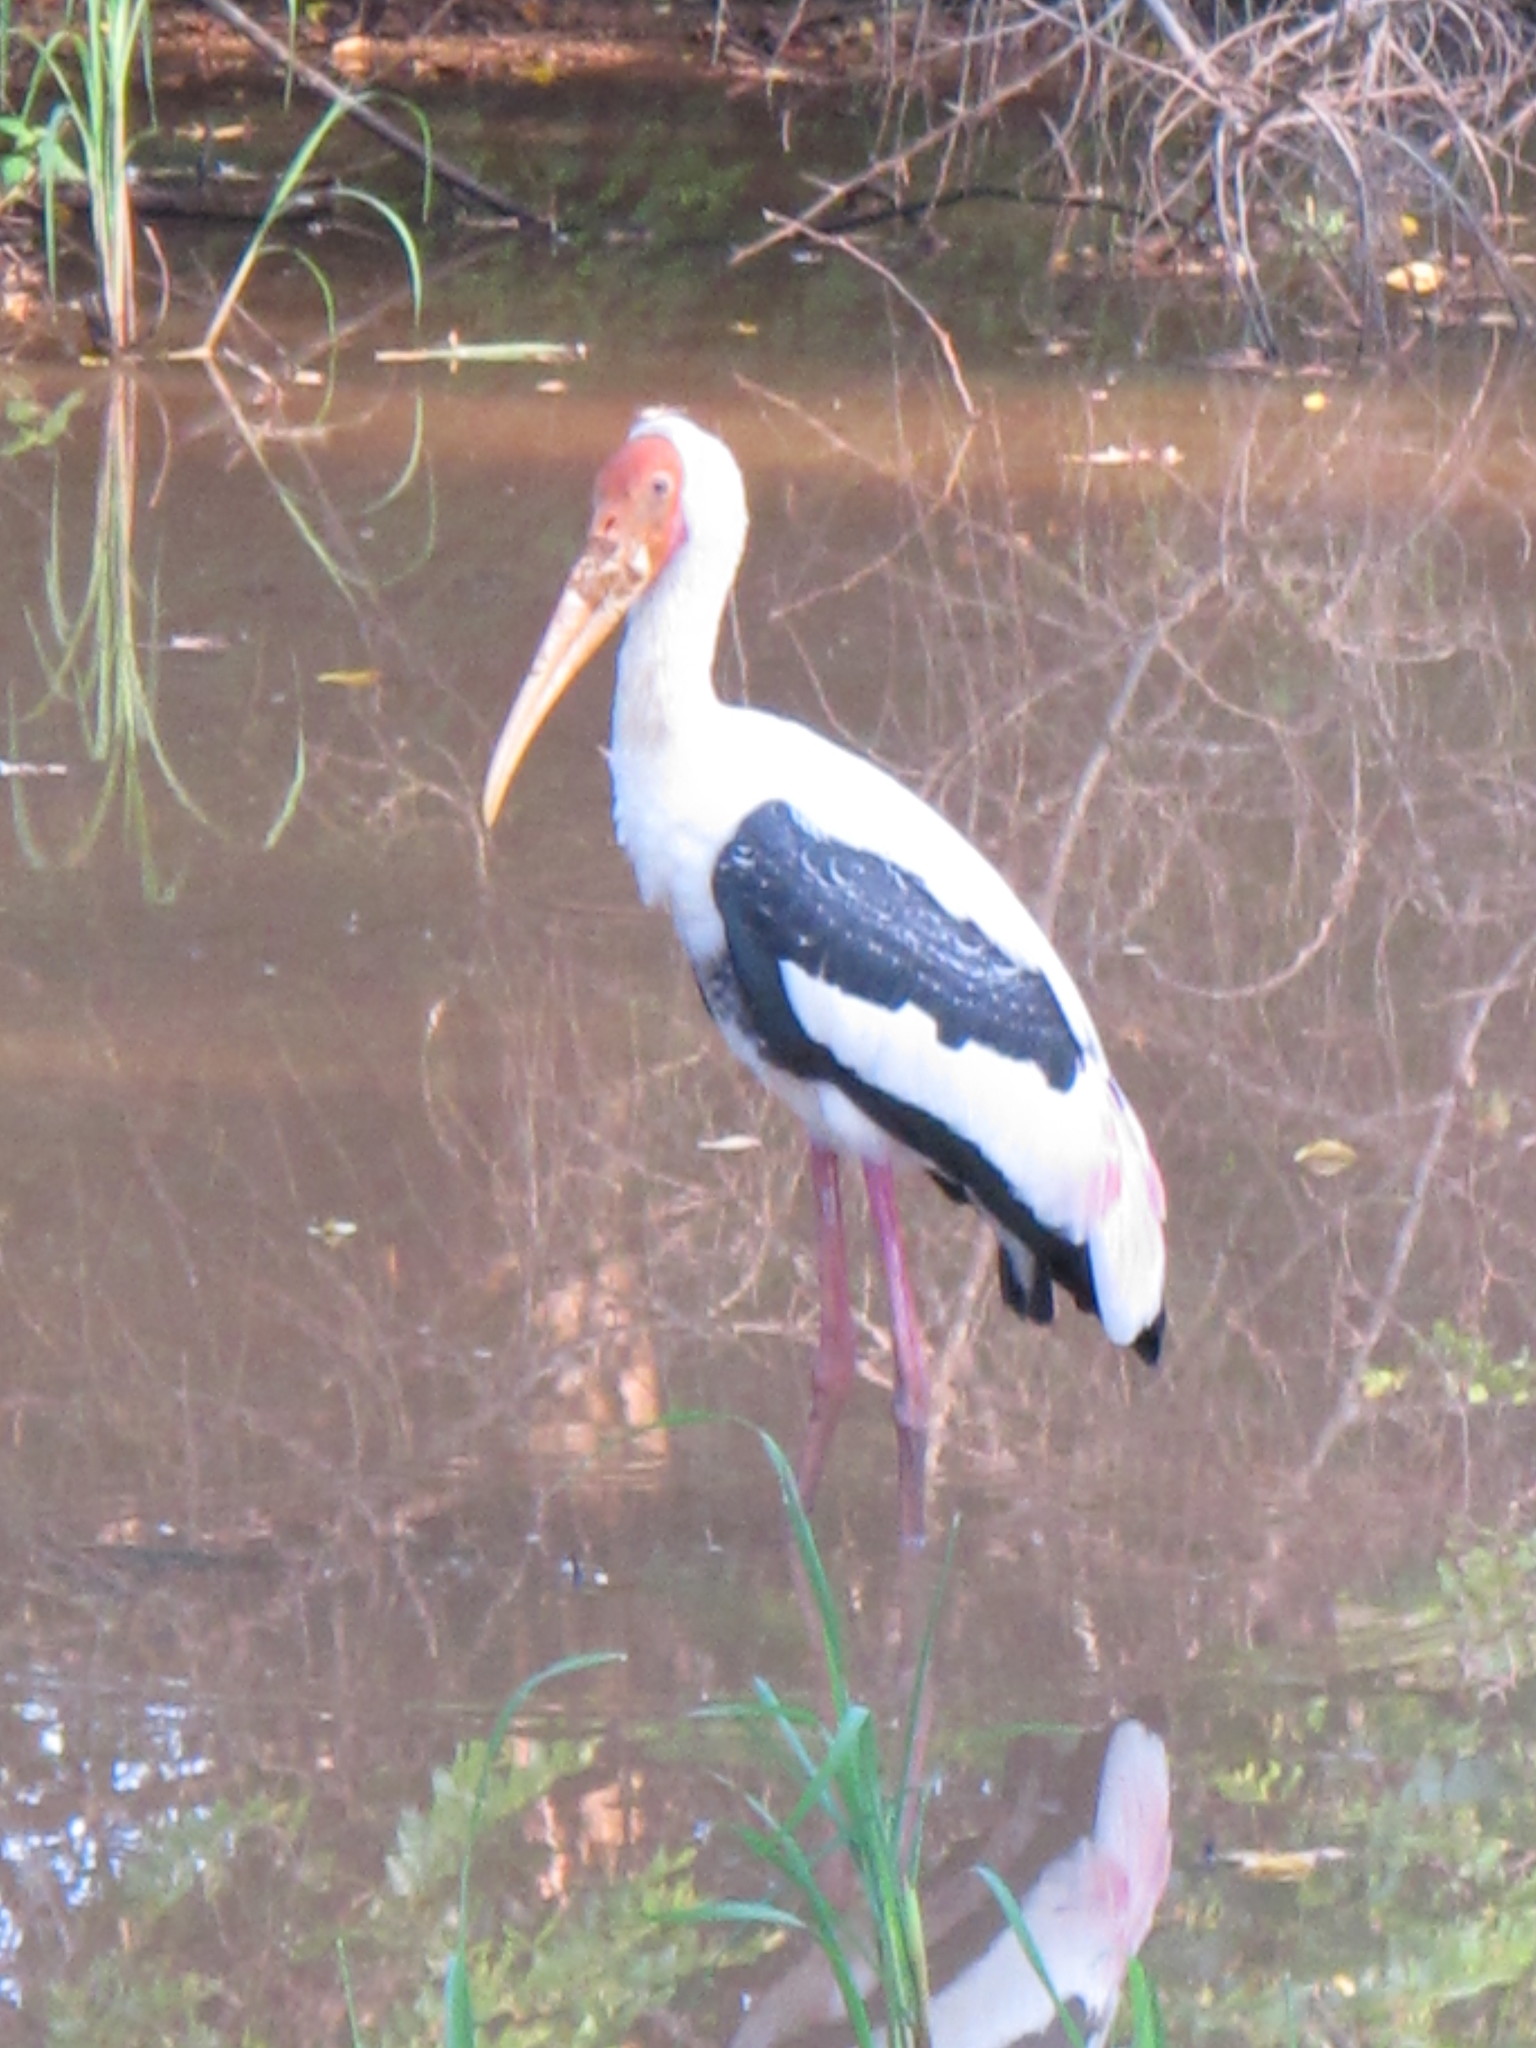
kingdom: Animalia
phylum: Chordata
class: Aves
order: Ciconiiformes
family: Ciconiidae
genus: Mycteria
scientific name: Mycteria leucocephala
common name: Painted stork
